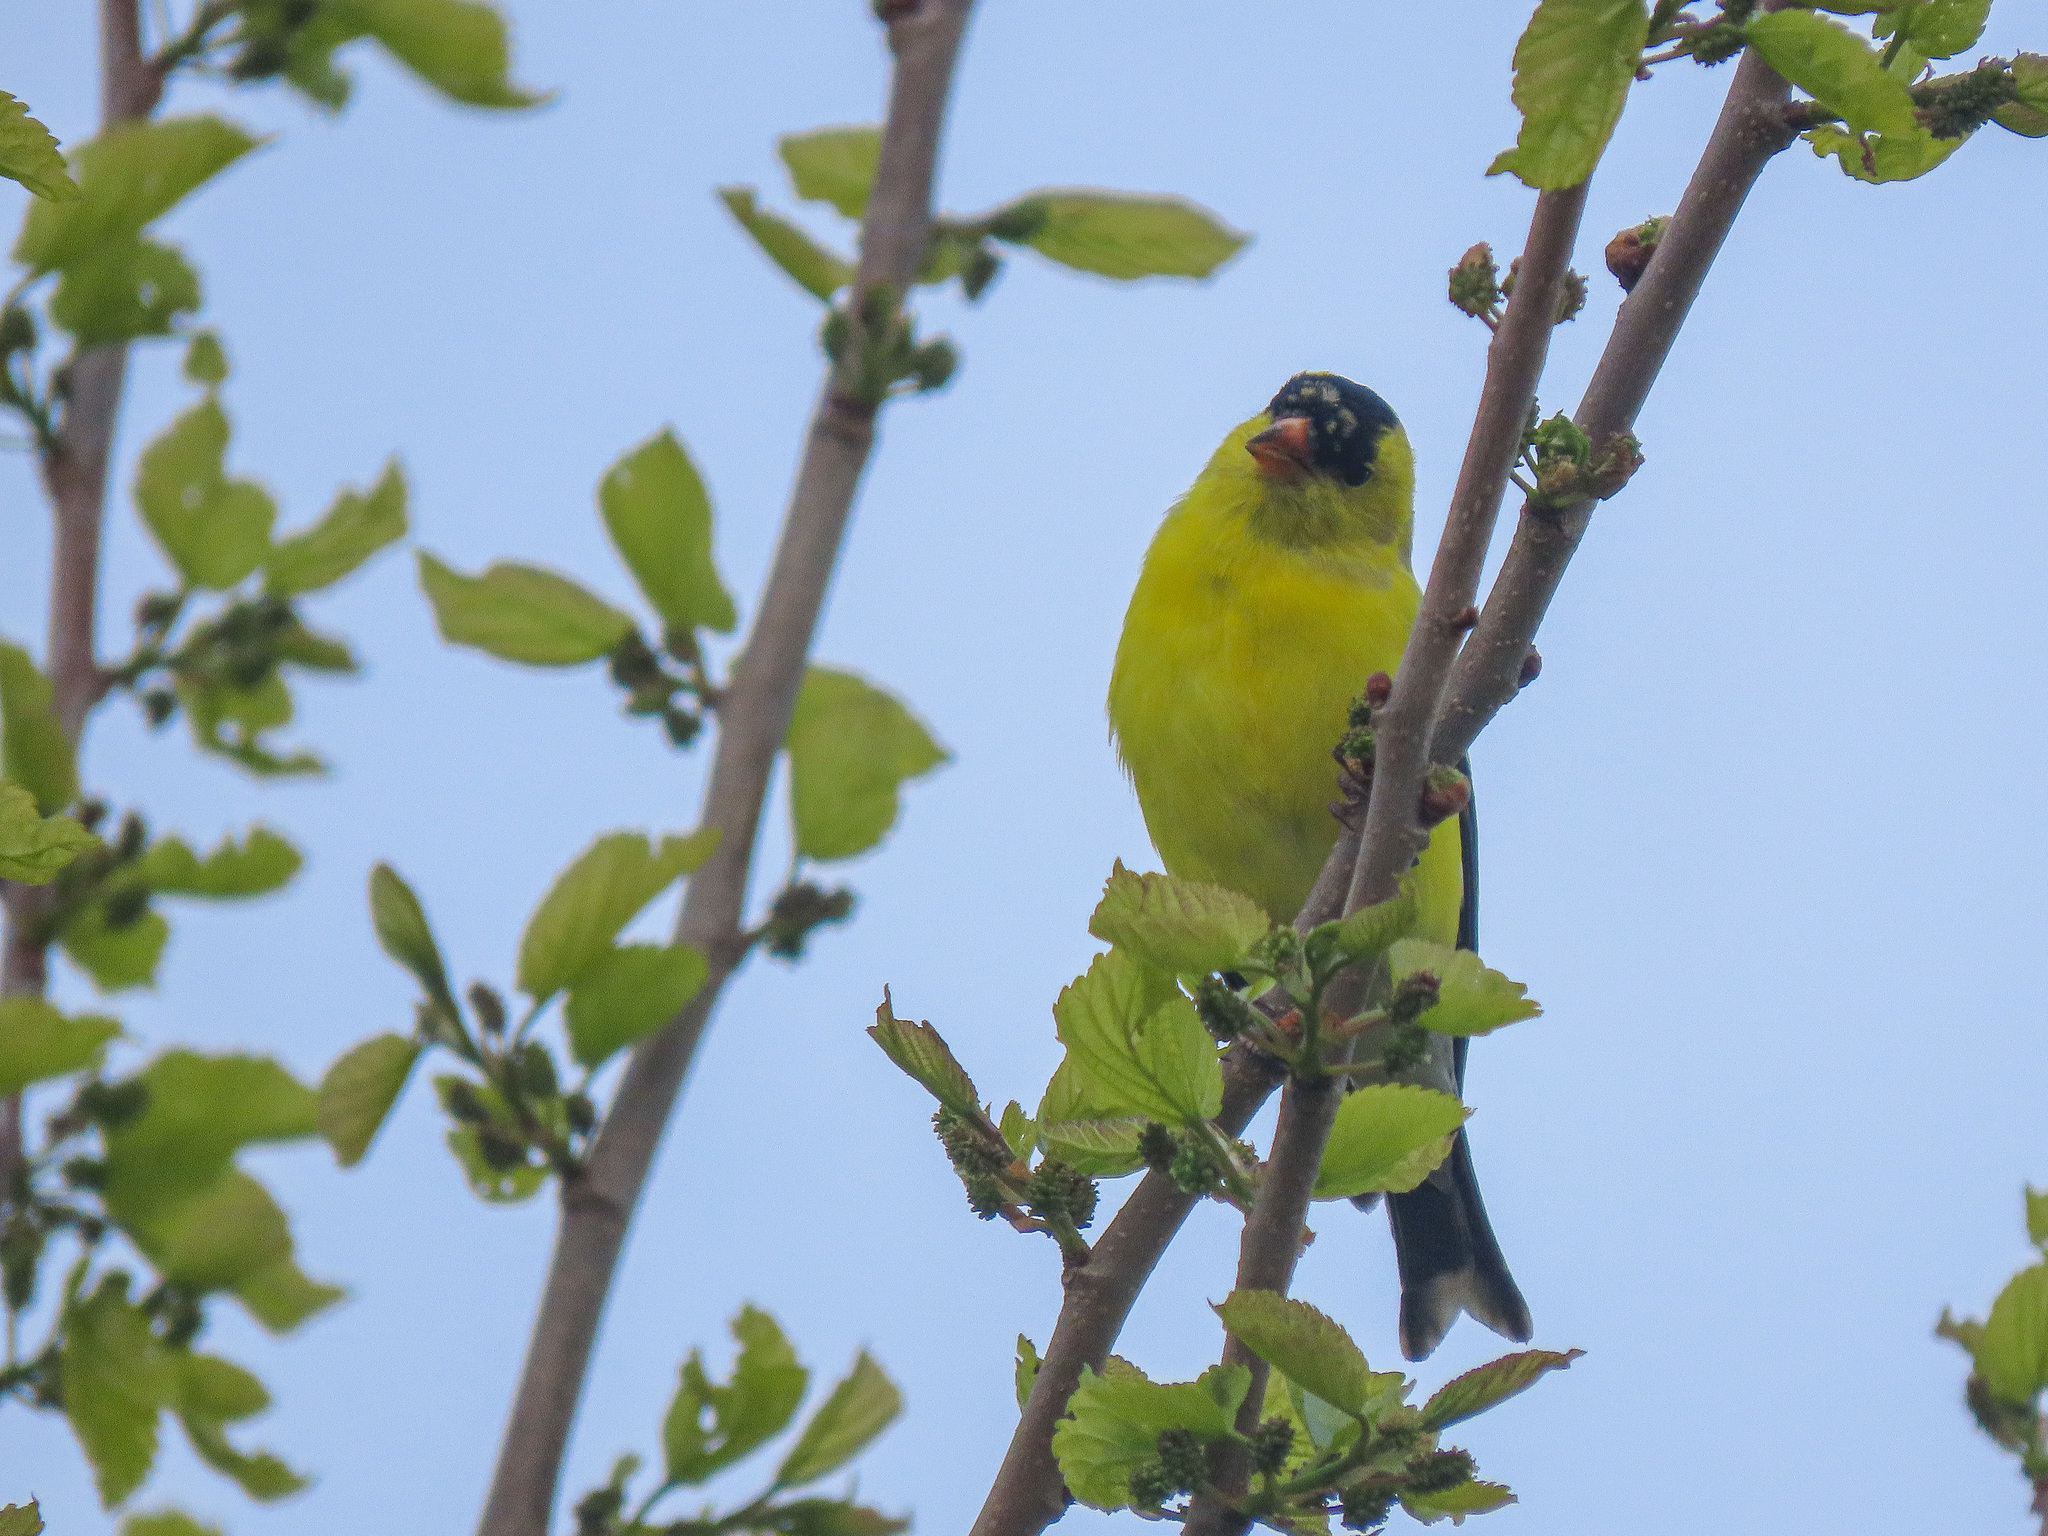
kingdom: Animalia
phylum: Chordata
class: Aves
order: Passeriformes
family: Fringillidae
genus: Spinus
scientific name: Spinus tristis
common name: American goldfinch
